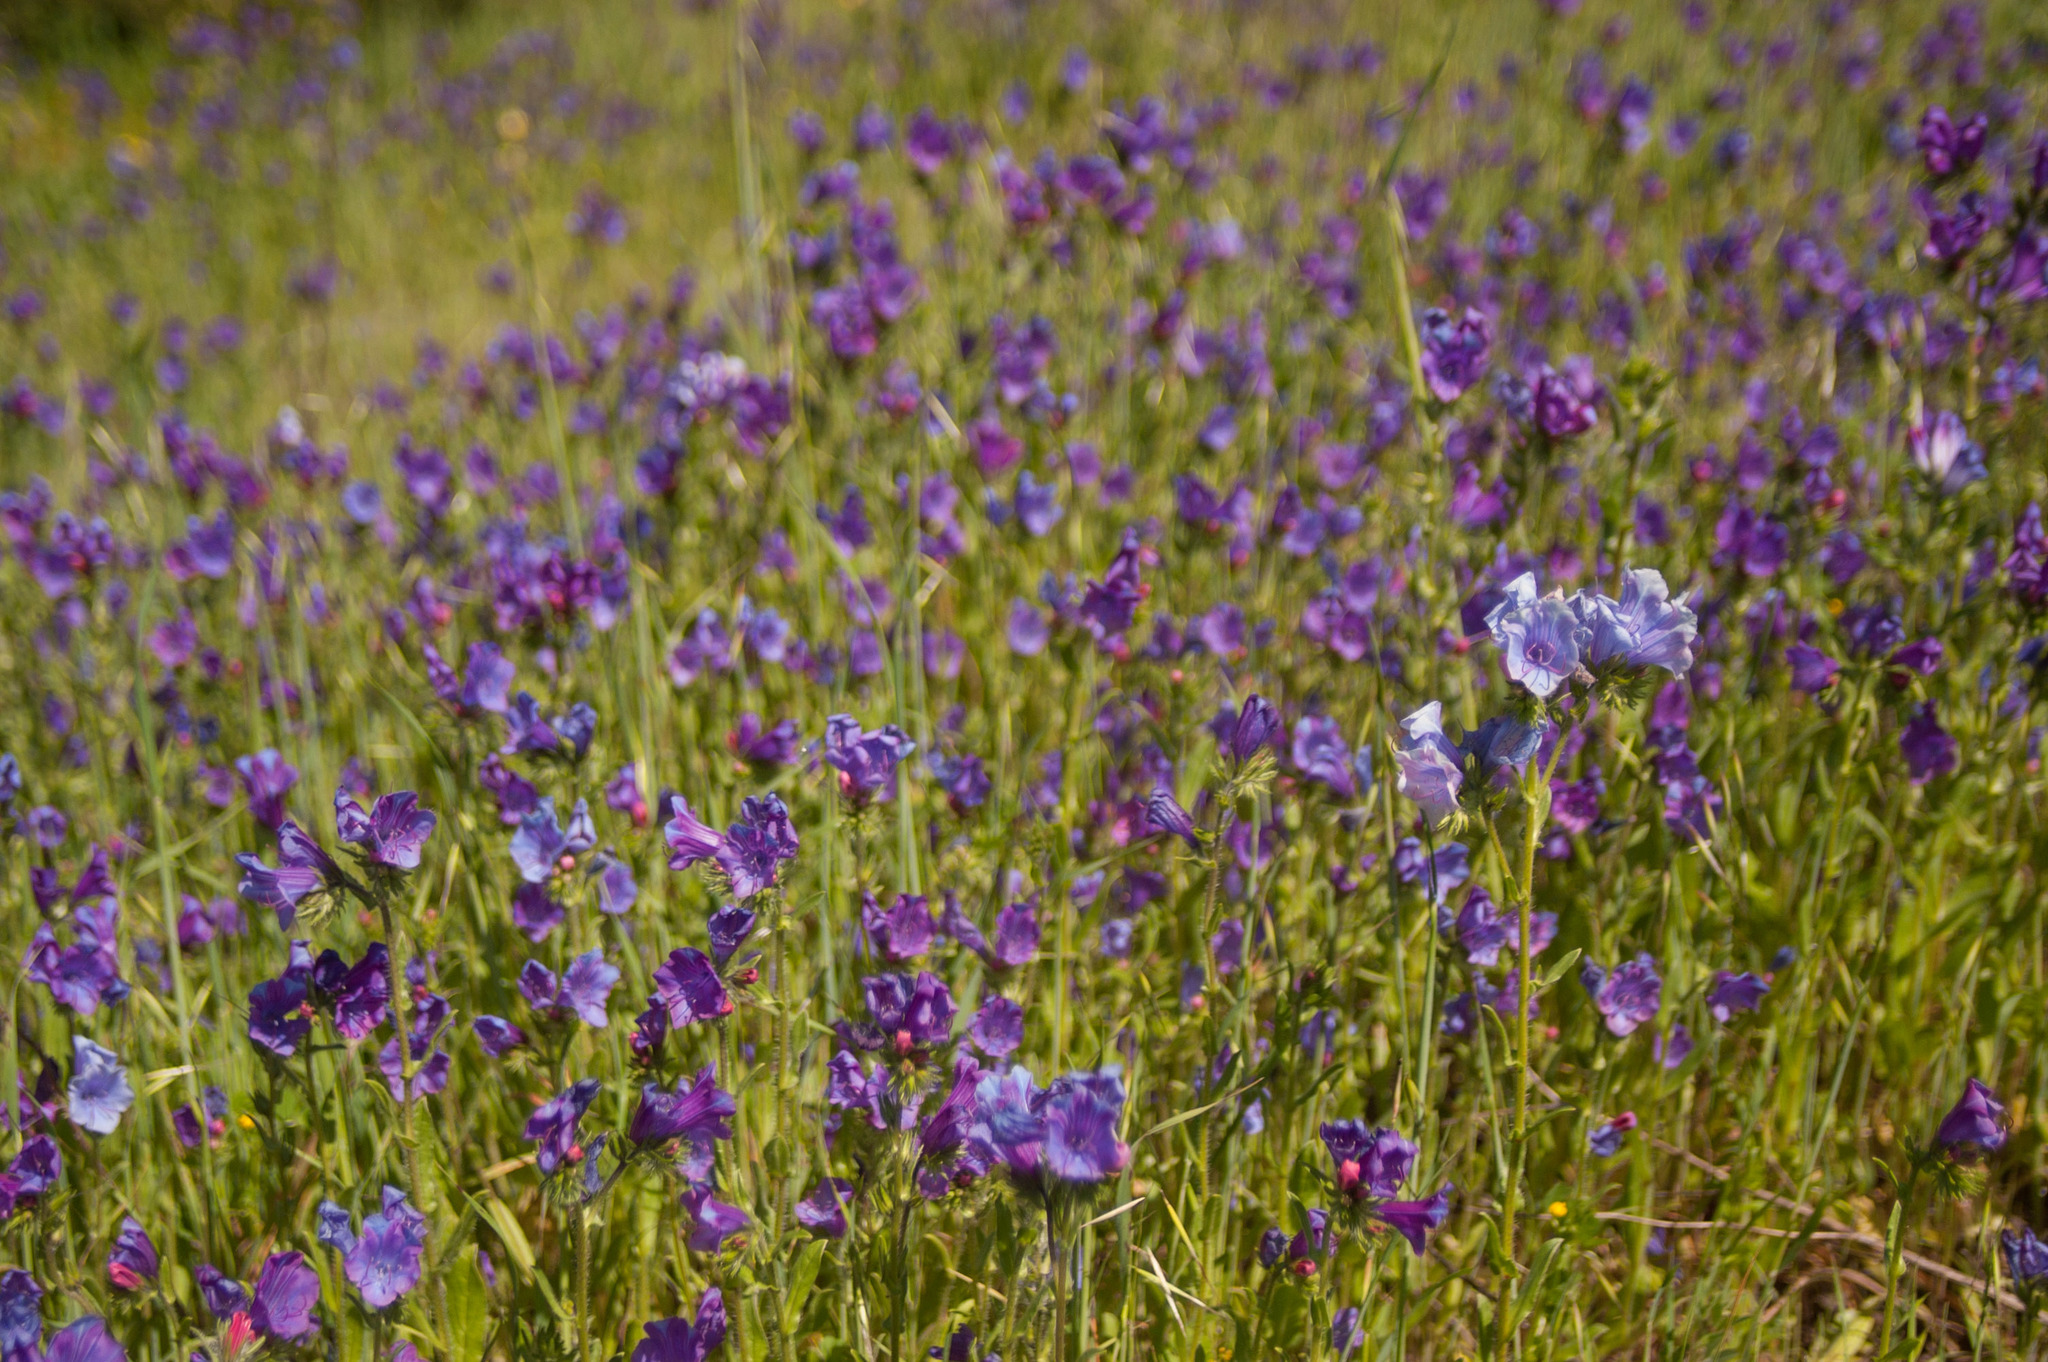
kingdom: Plantae
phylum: Tracheophyta
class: Magnoliopsida
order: Boraginales
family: Boraginaceae
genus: Echium
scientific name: Echium plantagineum
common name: Purple viper's-bugloss
